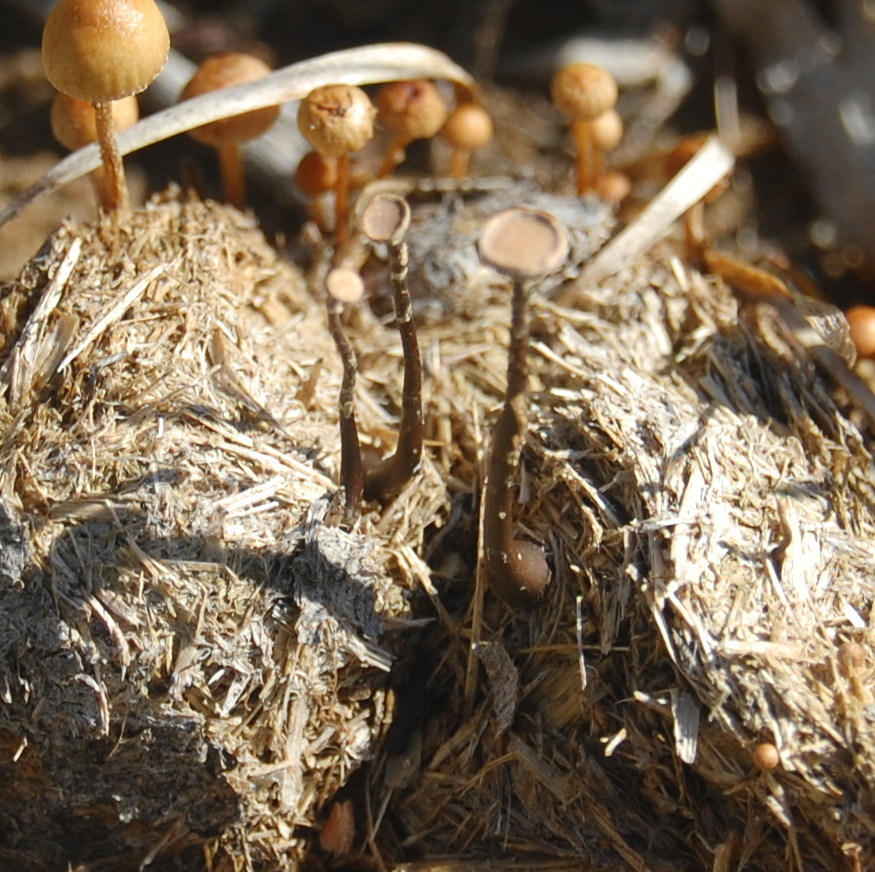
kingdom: Fungi
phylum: Ascomycota
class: Sordariomycetes
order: Xylariales
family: Xylariaceae
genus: Poronia
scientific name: Poronia oedipus
